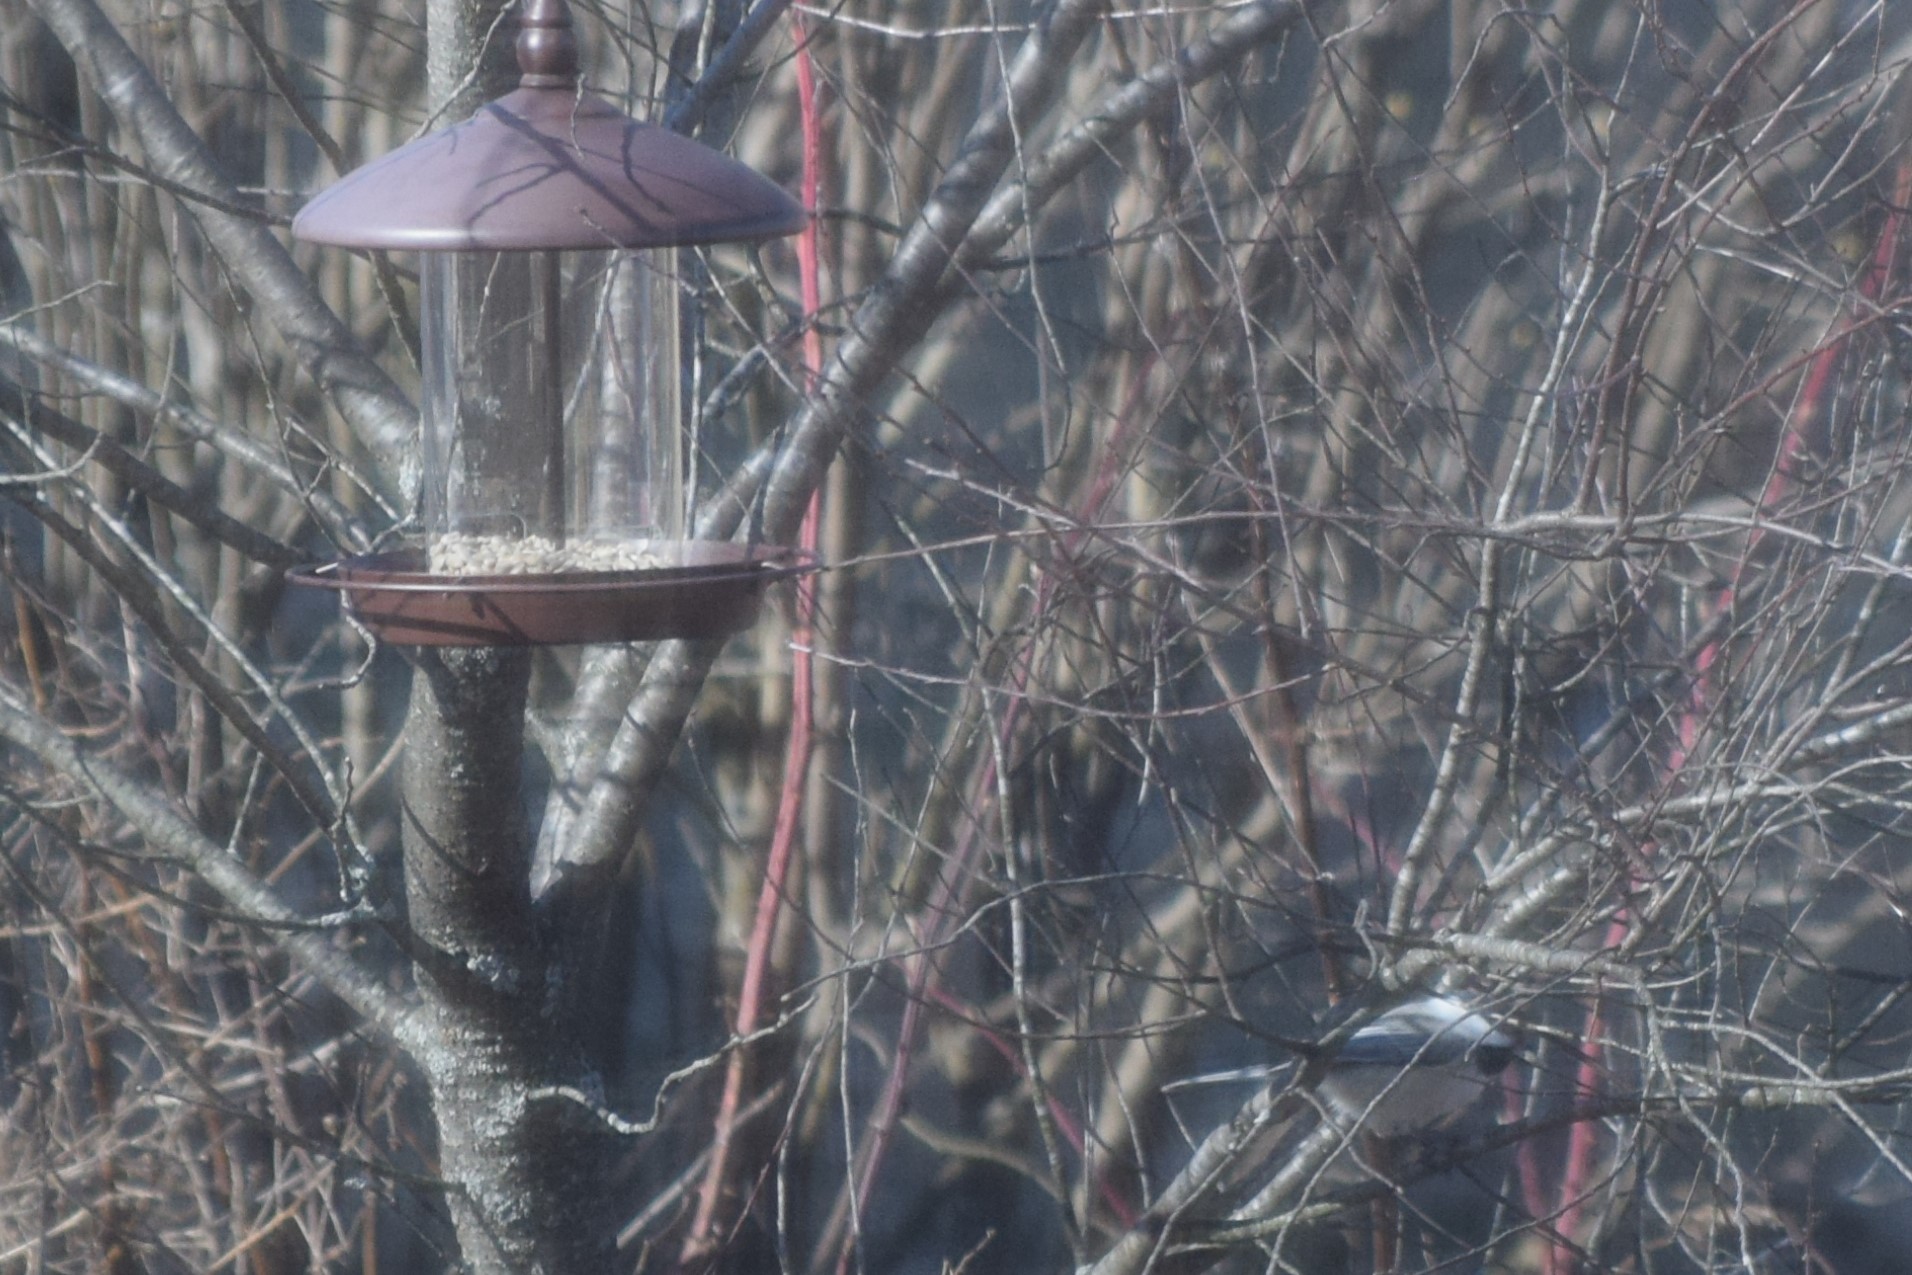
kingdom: Animalia
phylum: Chordata
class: Aves
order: Passeriformes
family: Paridae
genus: Poecile
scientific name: Poecile atricapillus
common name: Black-capped chickadee
